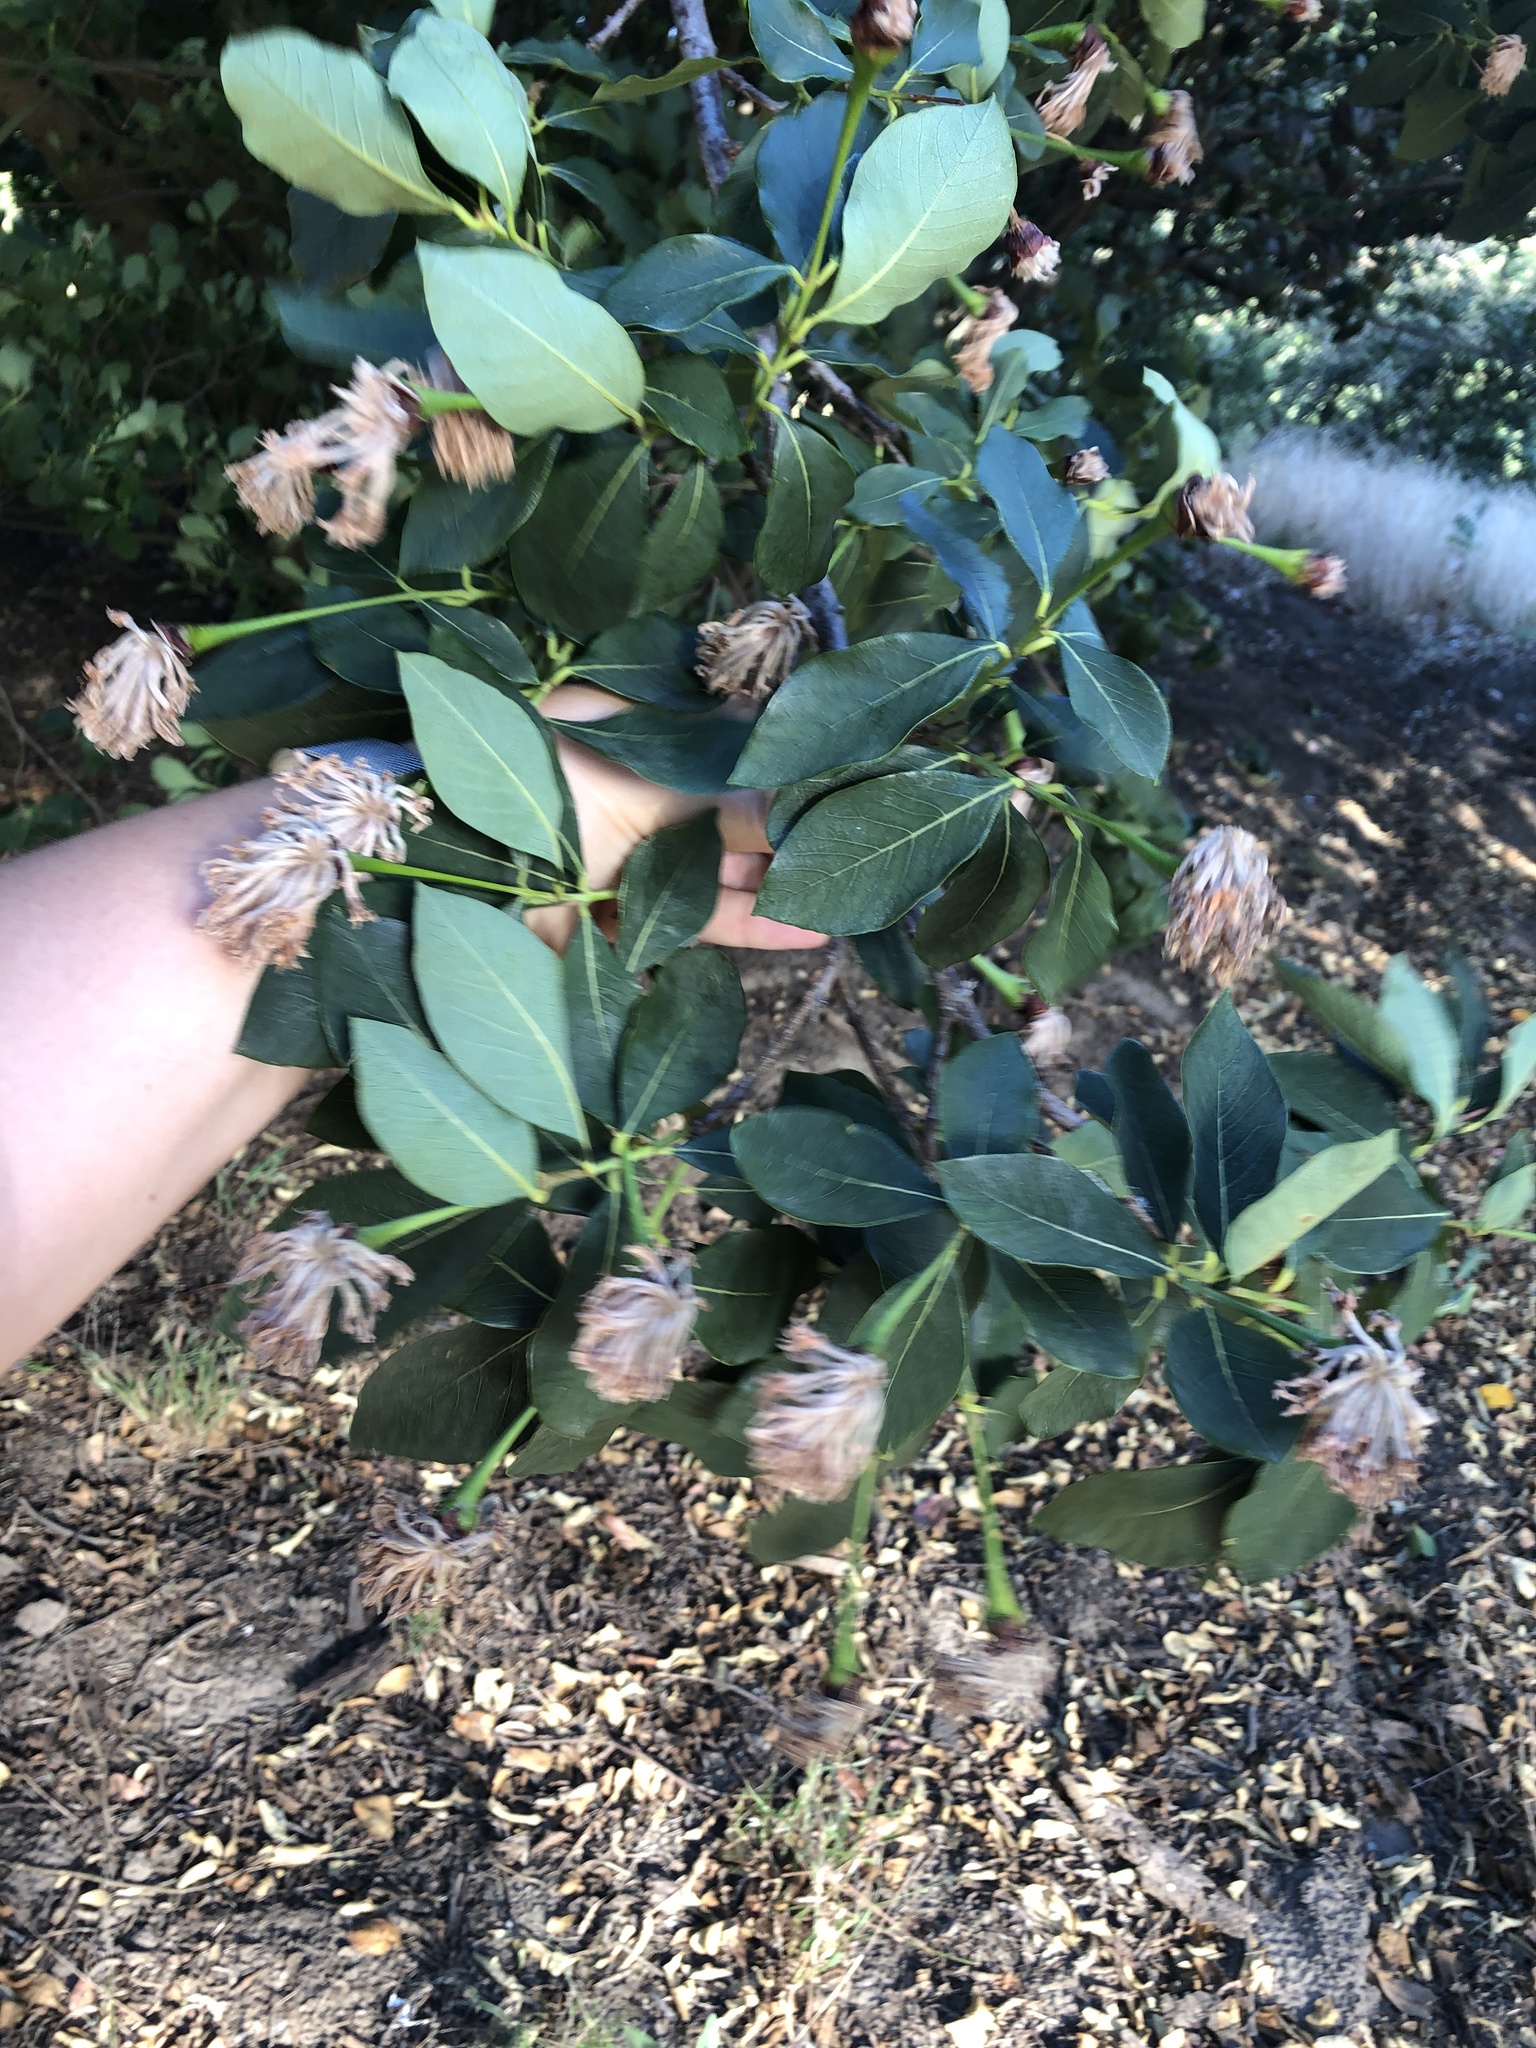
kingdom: Plantae
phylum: Tracheophyta
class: Magnoliopsida
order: Malvales
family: Thymelaeaceae
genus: Dais
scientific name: Dais cotinifolia
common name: Pompon tree
